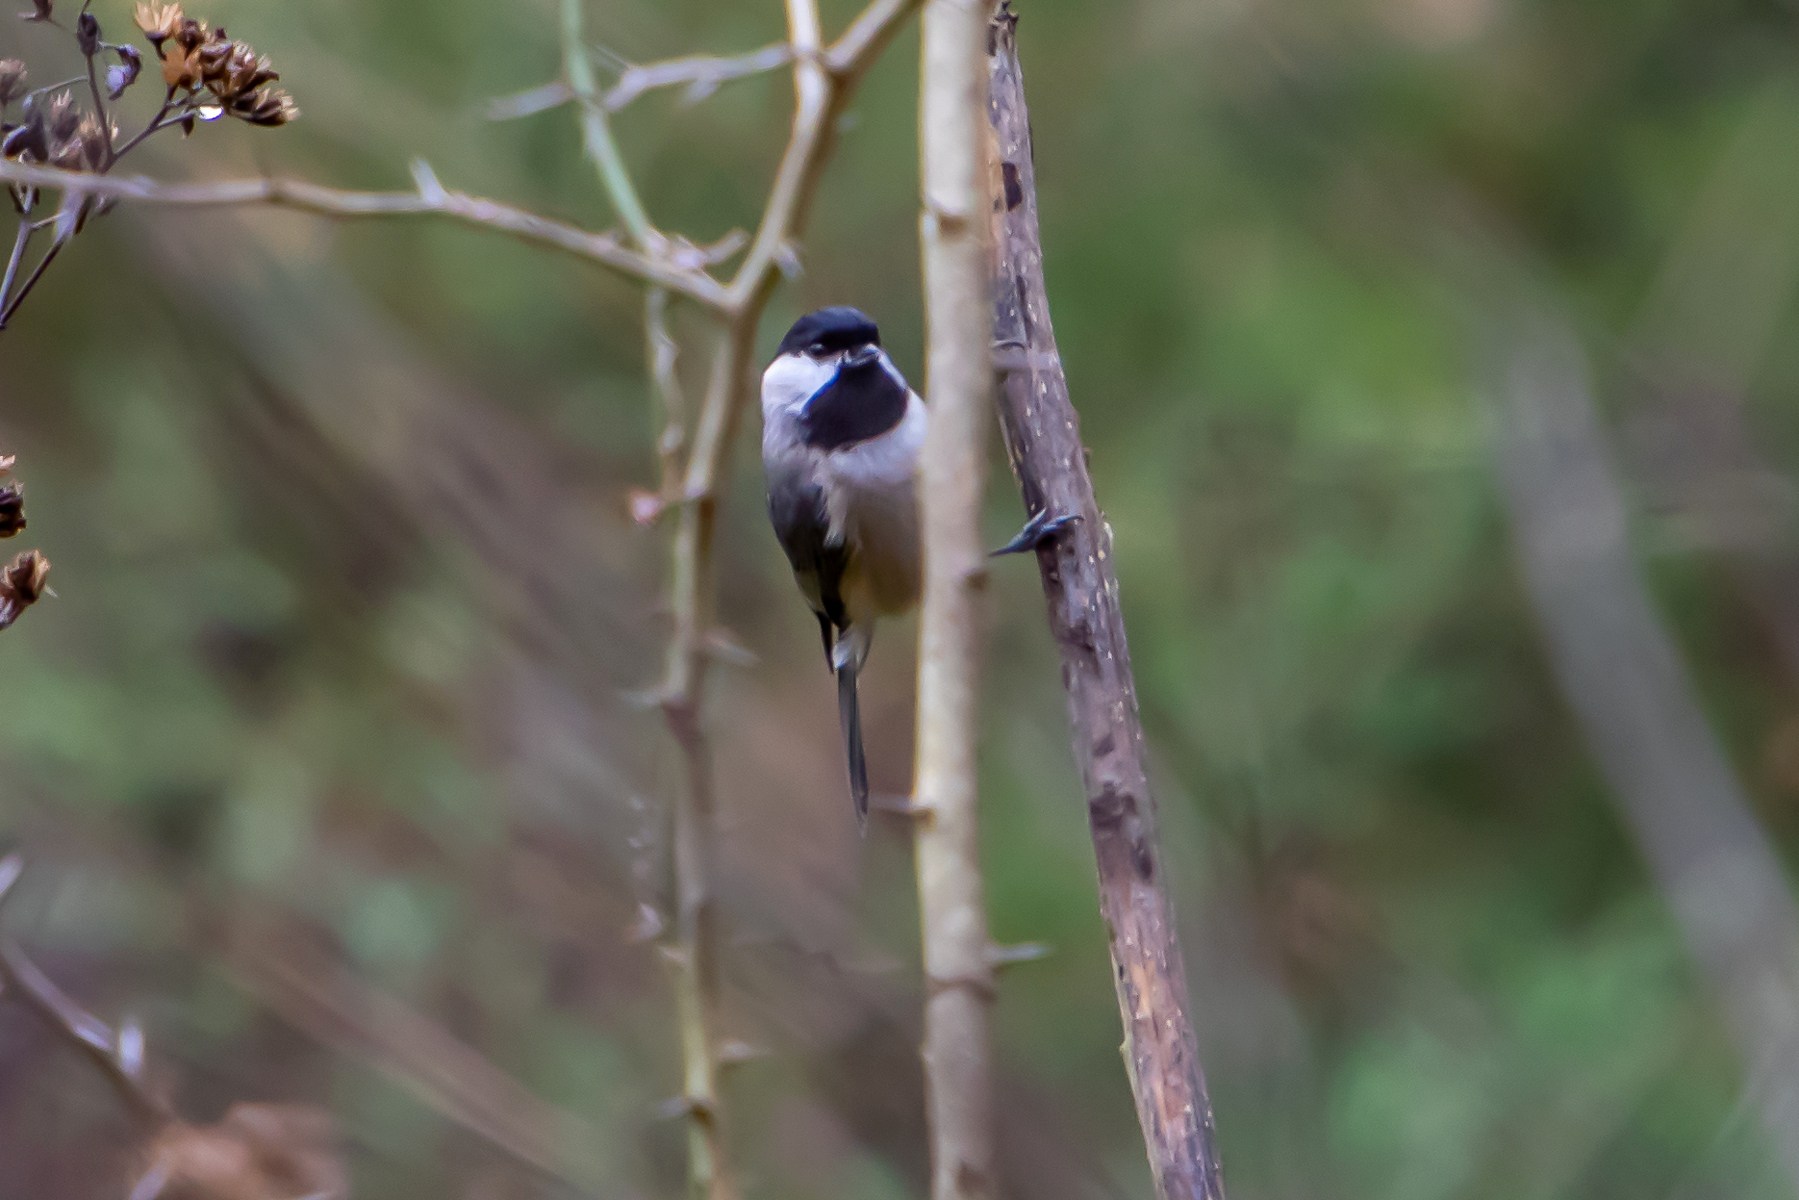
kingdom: Animalia
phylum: Chordata
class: Aves
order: Passeriformes
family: Paridae
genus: Poecile
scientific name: Poecile carolinensis
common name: Carolina chickadee
